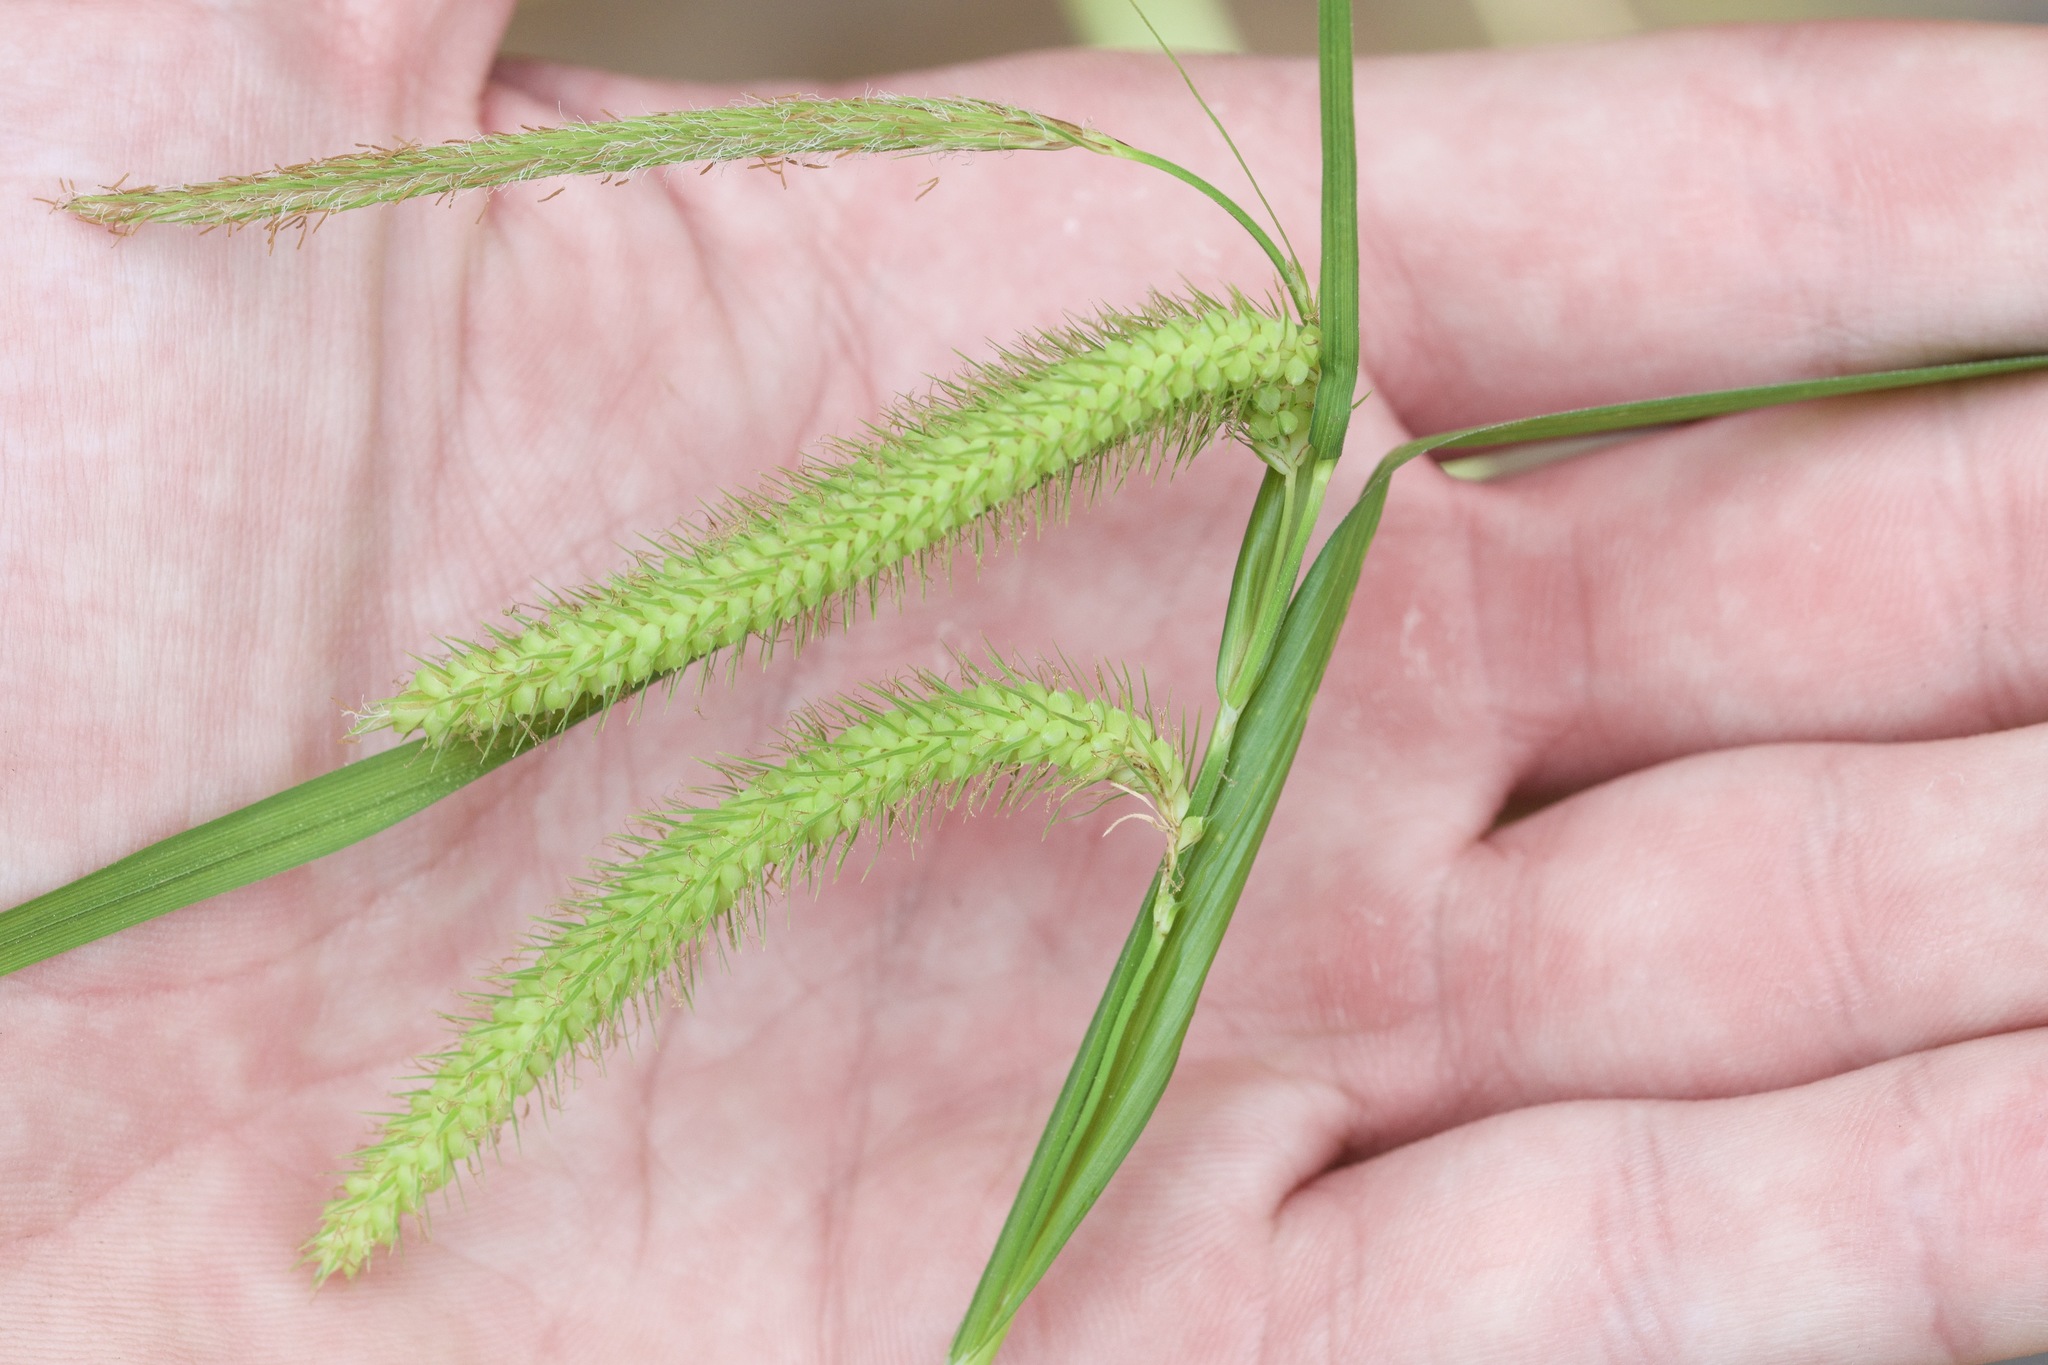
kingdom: Plantae
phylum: Tracheophyta
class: Liliopsida
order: Poales
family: Cyperaceae
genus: Carex
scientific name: Carex gynandra
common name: Nodding sedge
